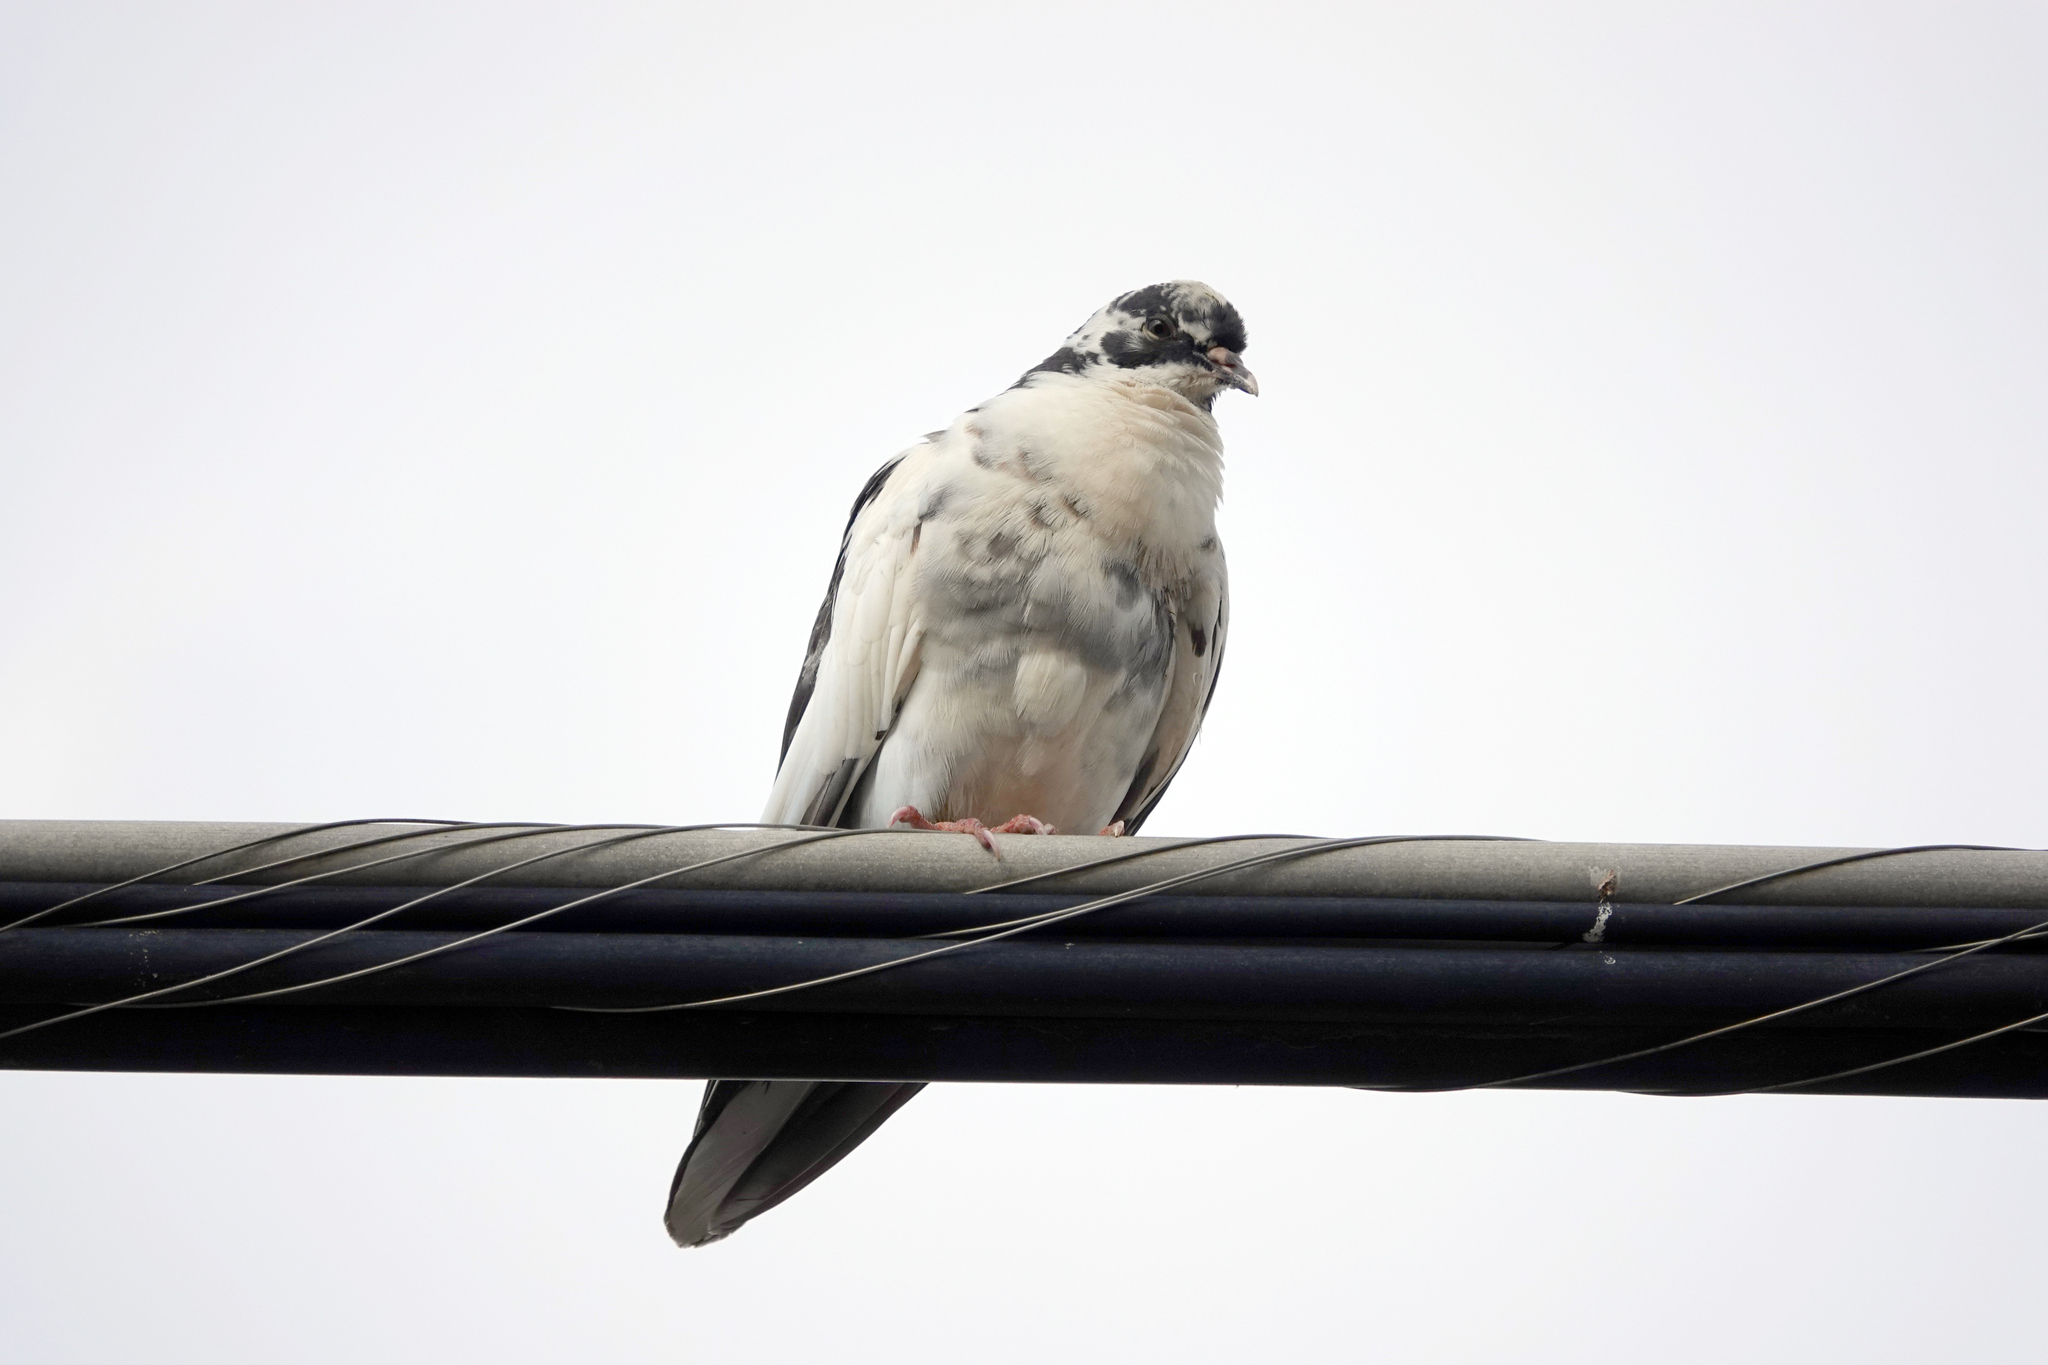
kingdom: Animalia
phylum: Chordata
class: Aves
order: Columbiformes
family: Columbidae
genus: Columba
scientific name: Columba livia
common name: Rock pigeon
